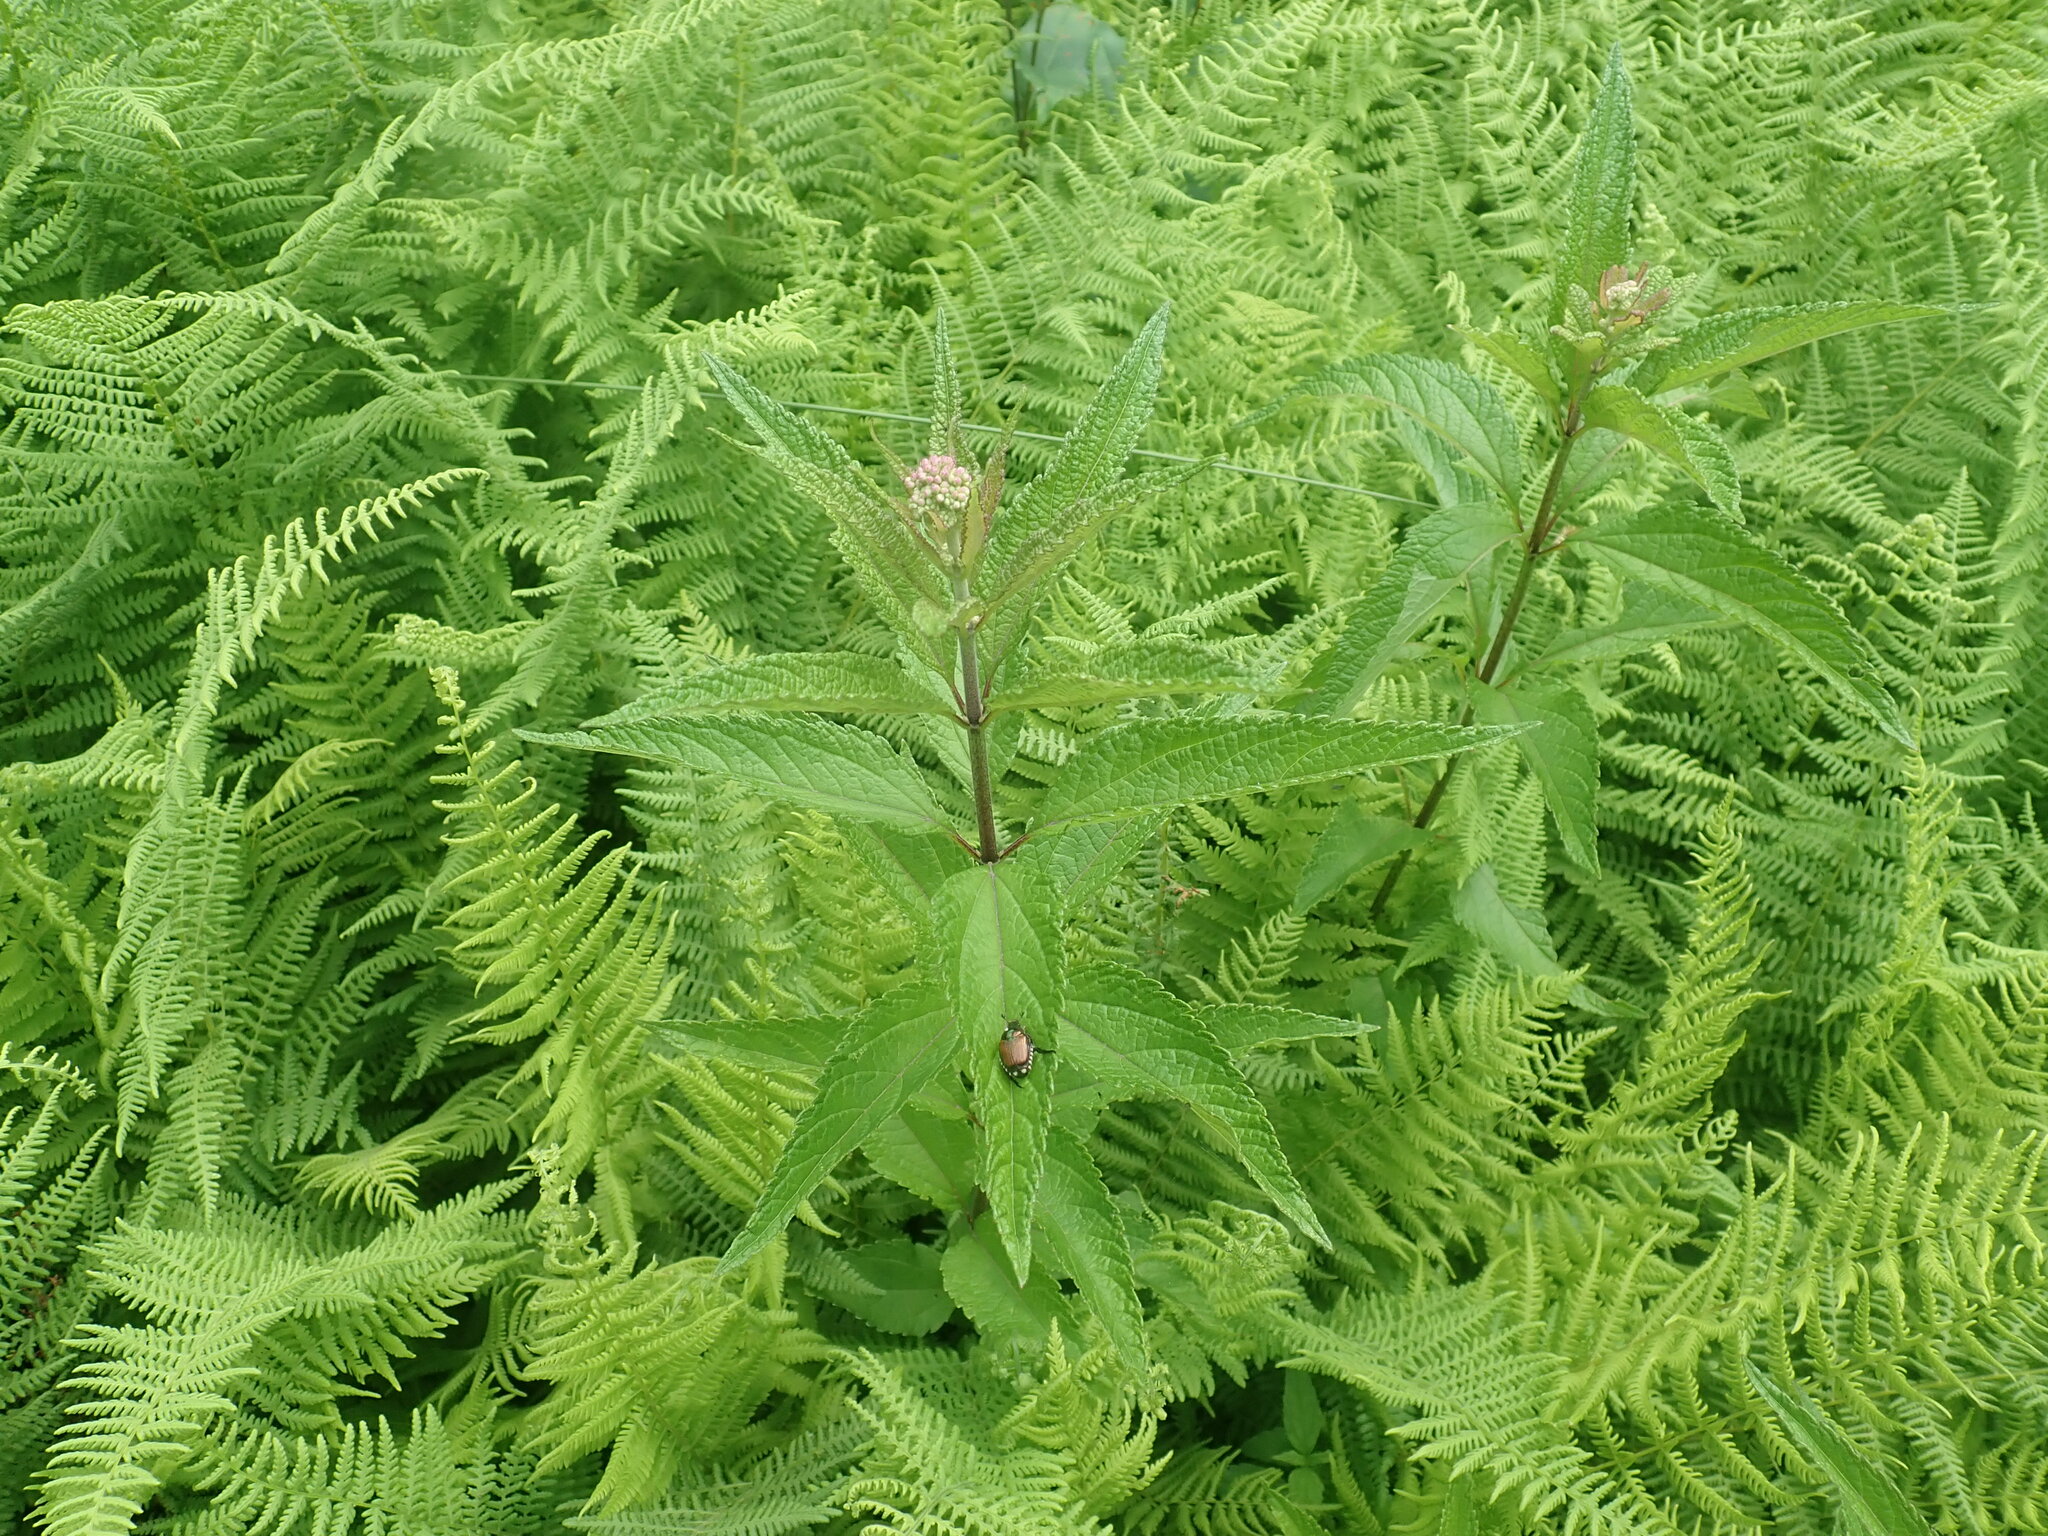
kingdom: Plantae
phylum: Tracheophyta
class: Magnoliopsida
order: Asterales
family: Asteraceae
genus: Eutrochium
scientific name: Eutrochium
